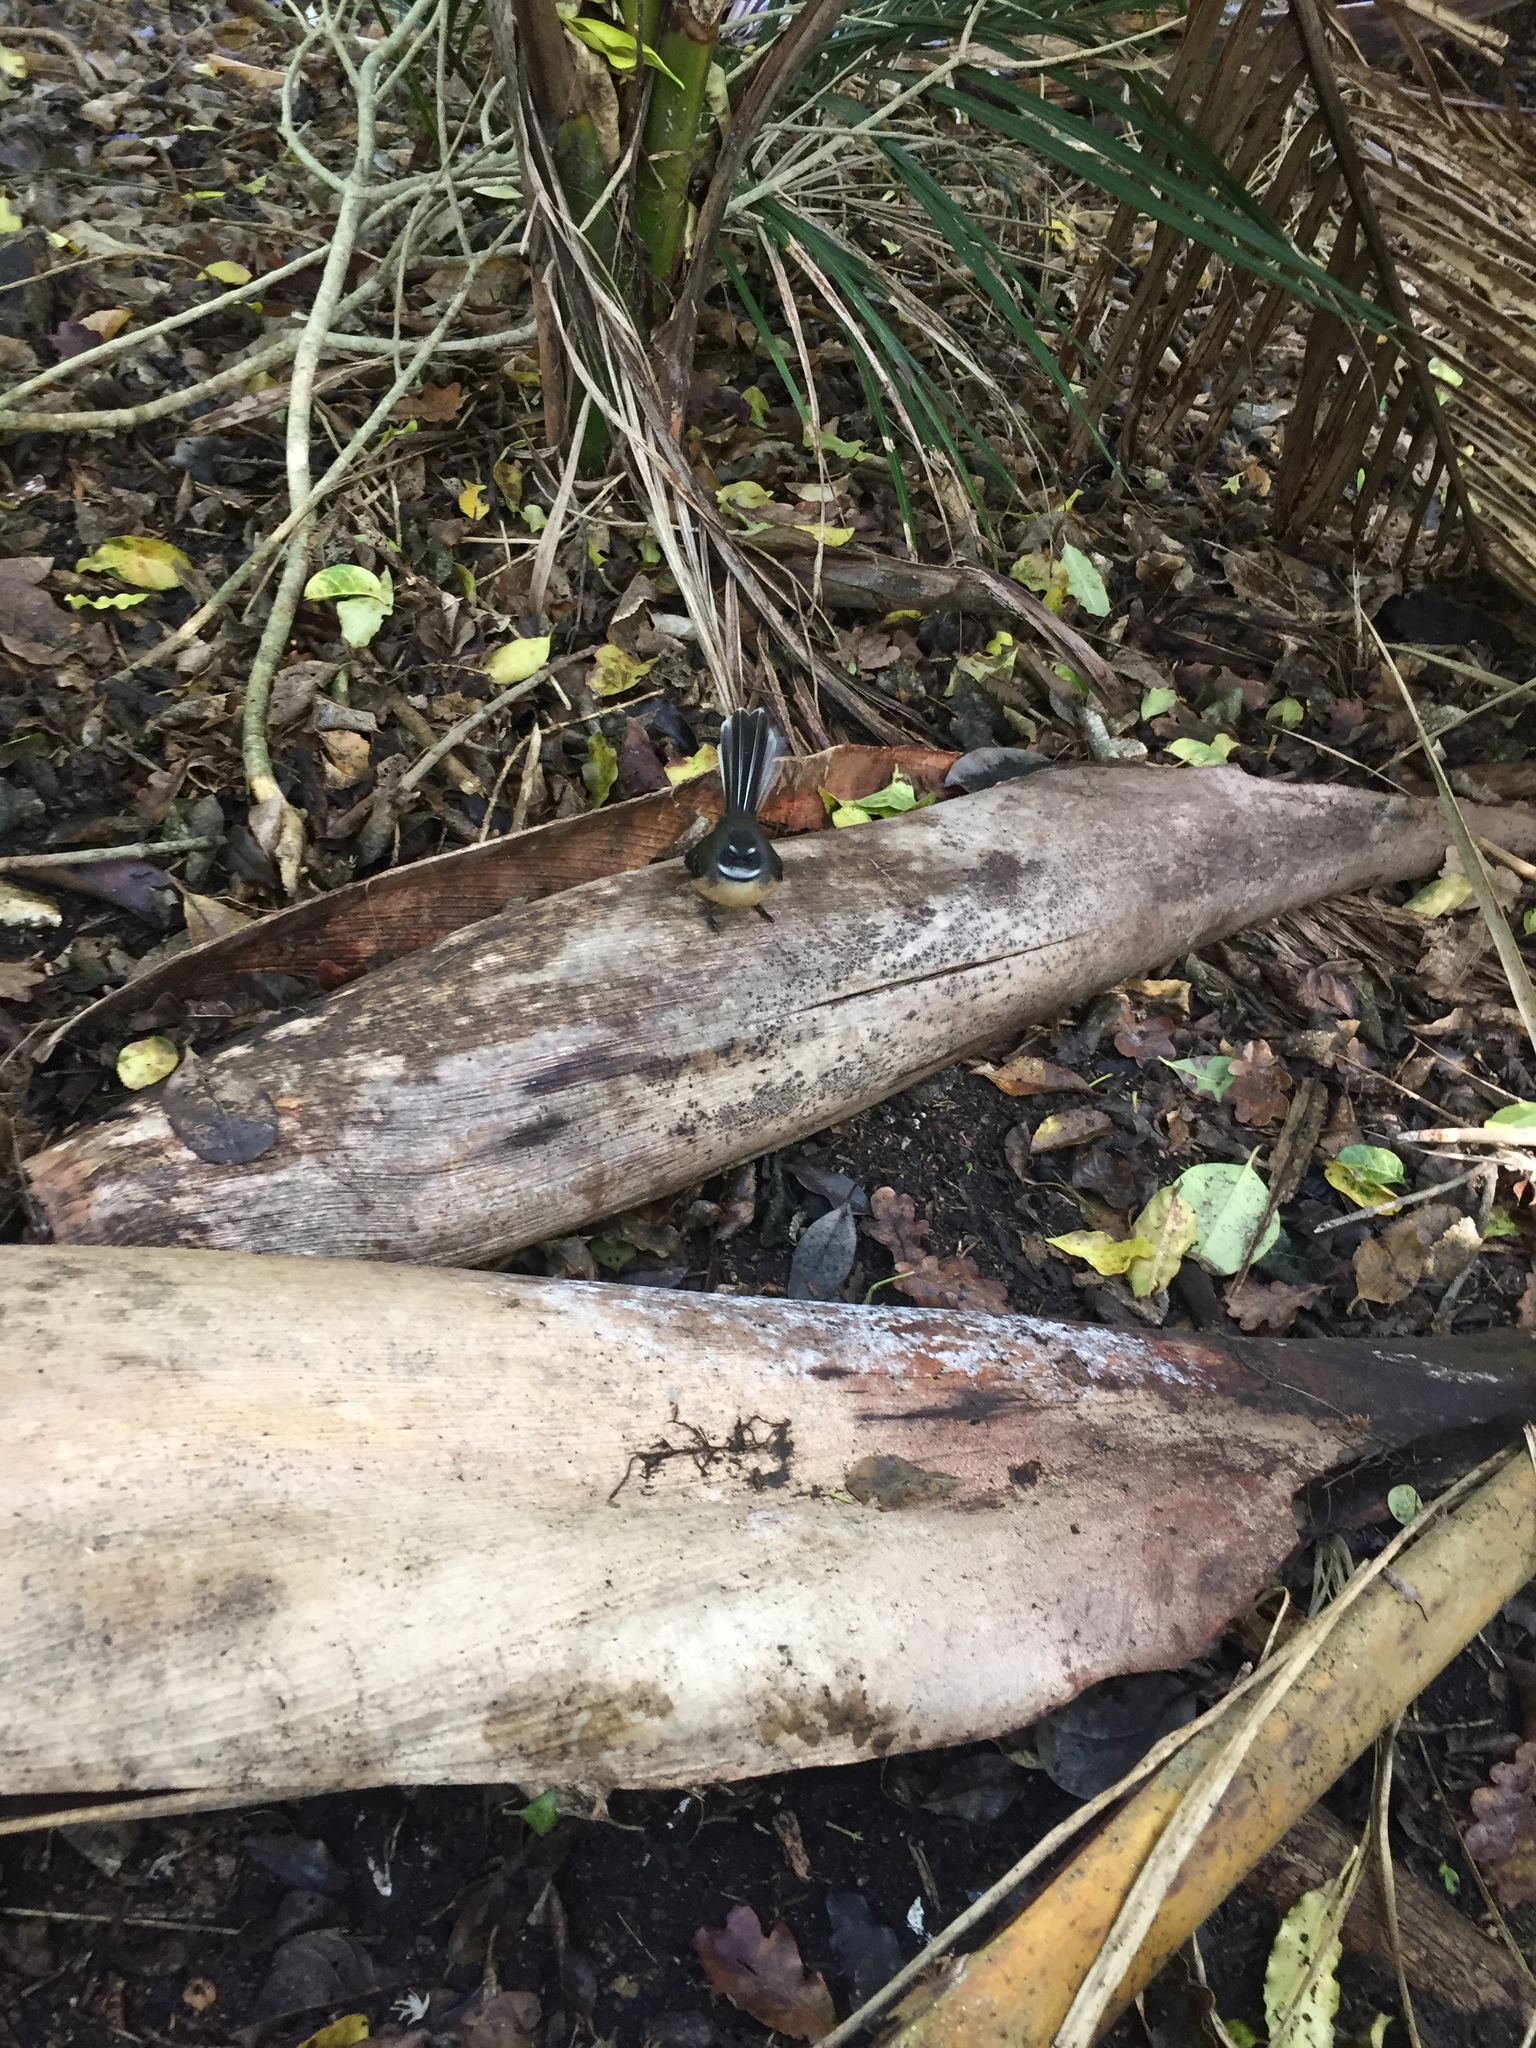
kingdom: Animalia
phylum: Chordata
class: Aves
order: Passeriformes
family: Rhipiduridae
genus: Rhipidura
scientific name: Rhipidura fuliginosa
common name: New zealand fantail
